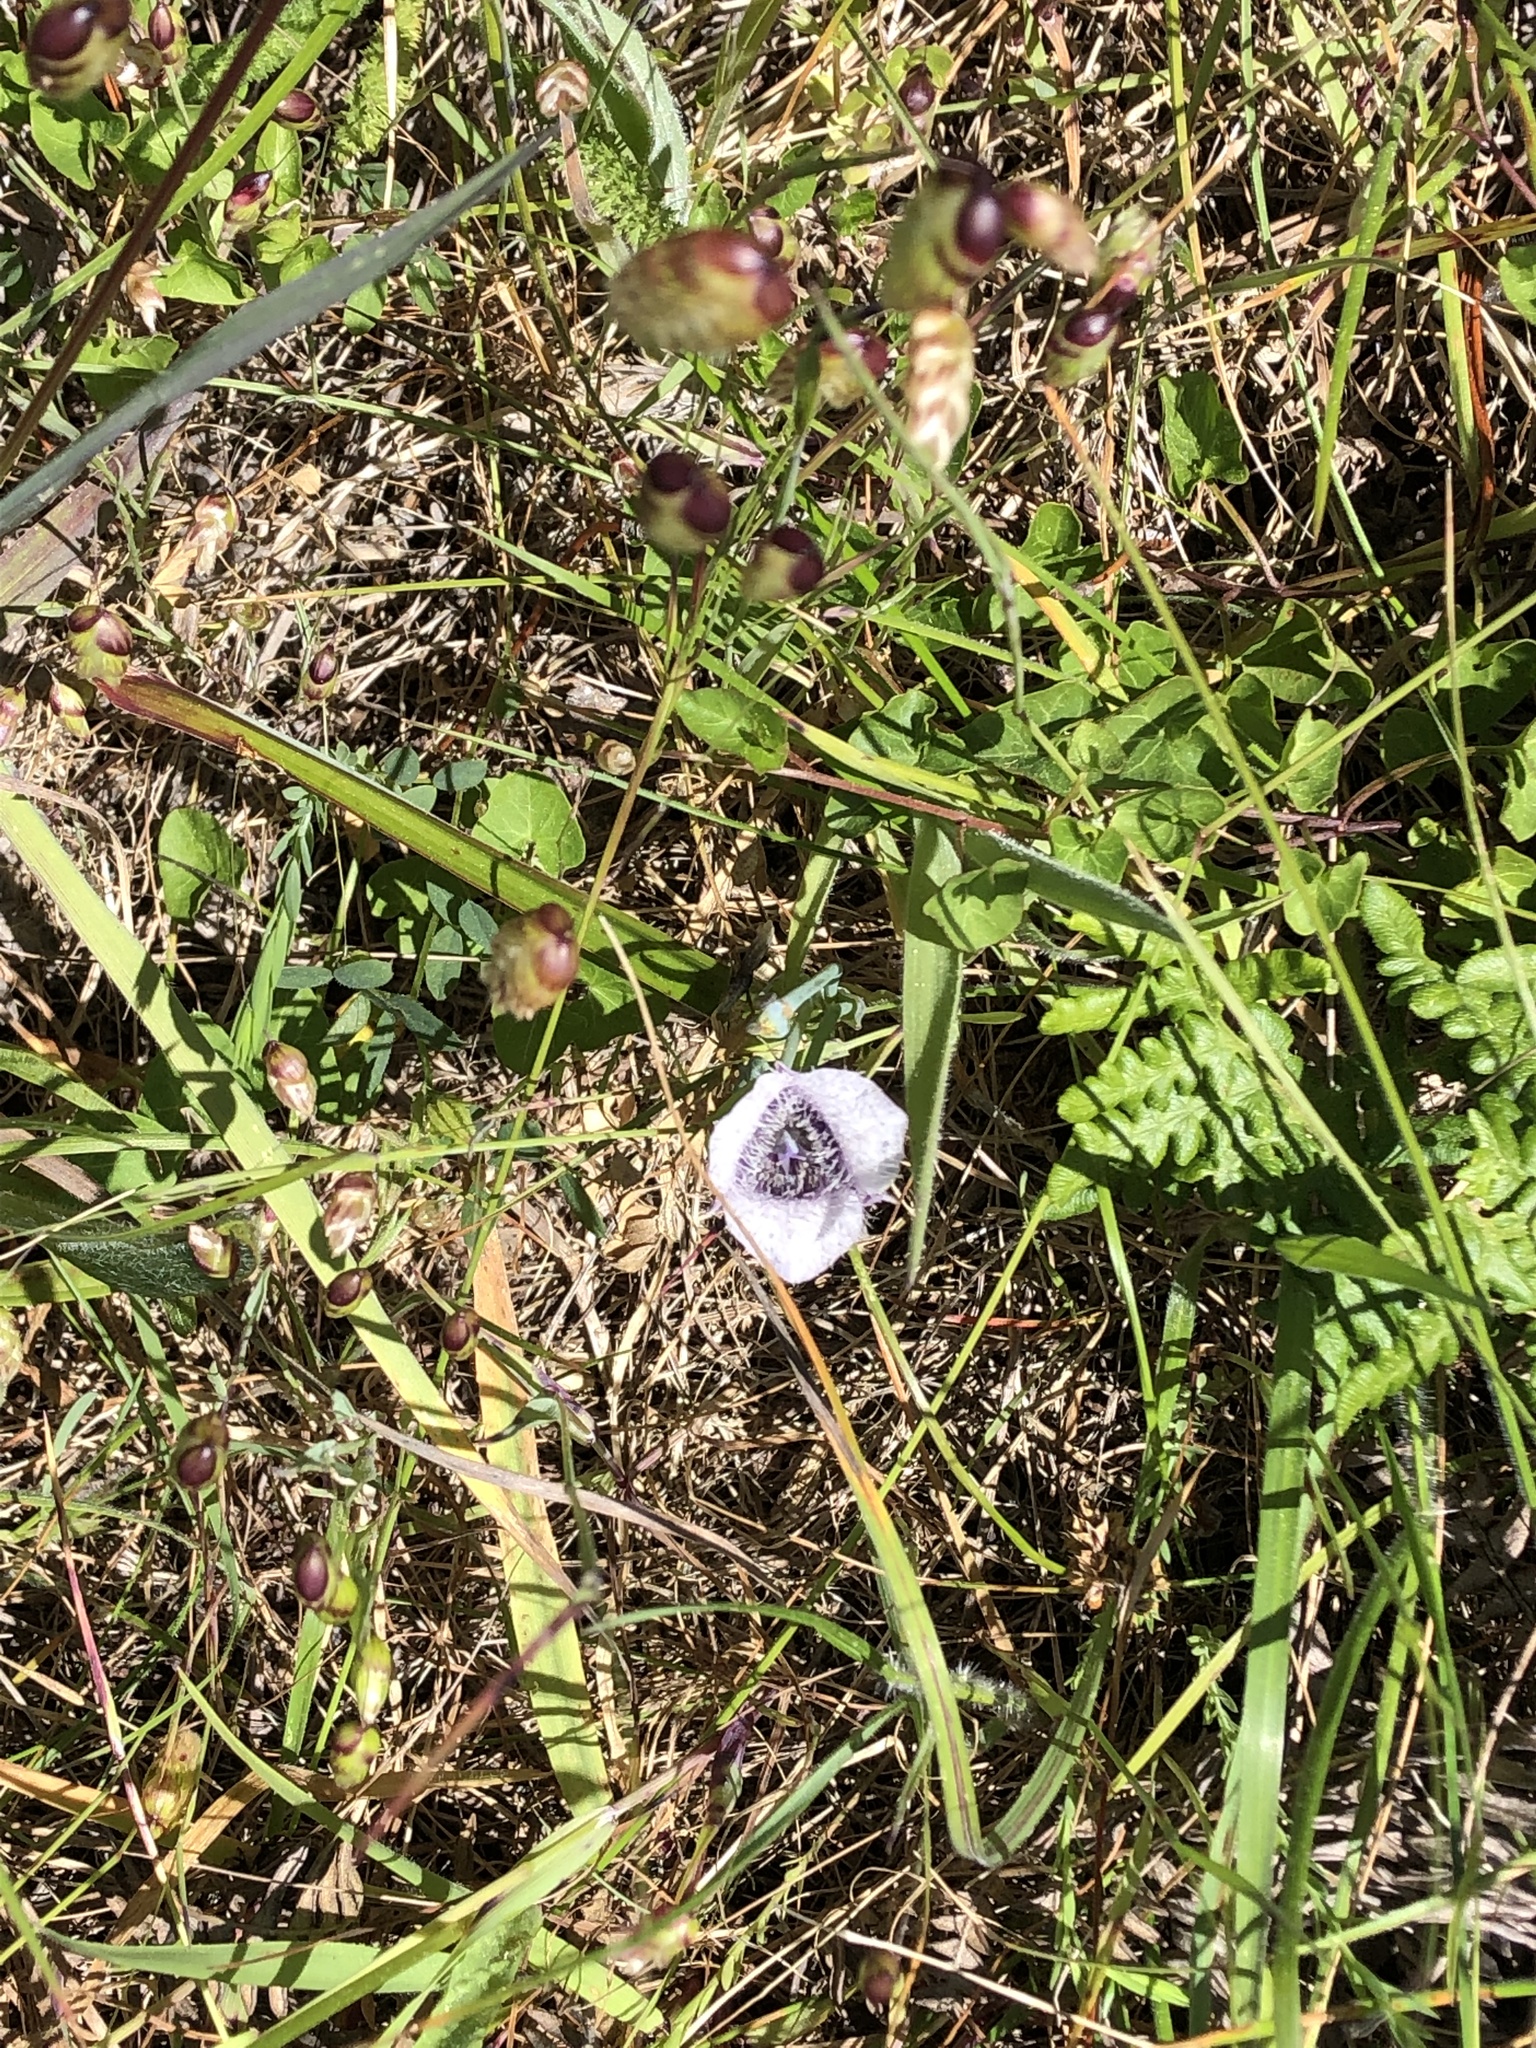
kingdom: Plantae
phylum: Tracheophyta
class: Liliopsida
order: Liliales
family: Liliaceae
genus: Calochortus
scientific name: Calochortus tolmiei
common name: Pussy-ears
